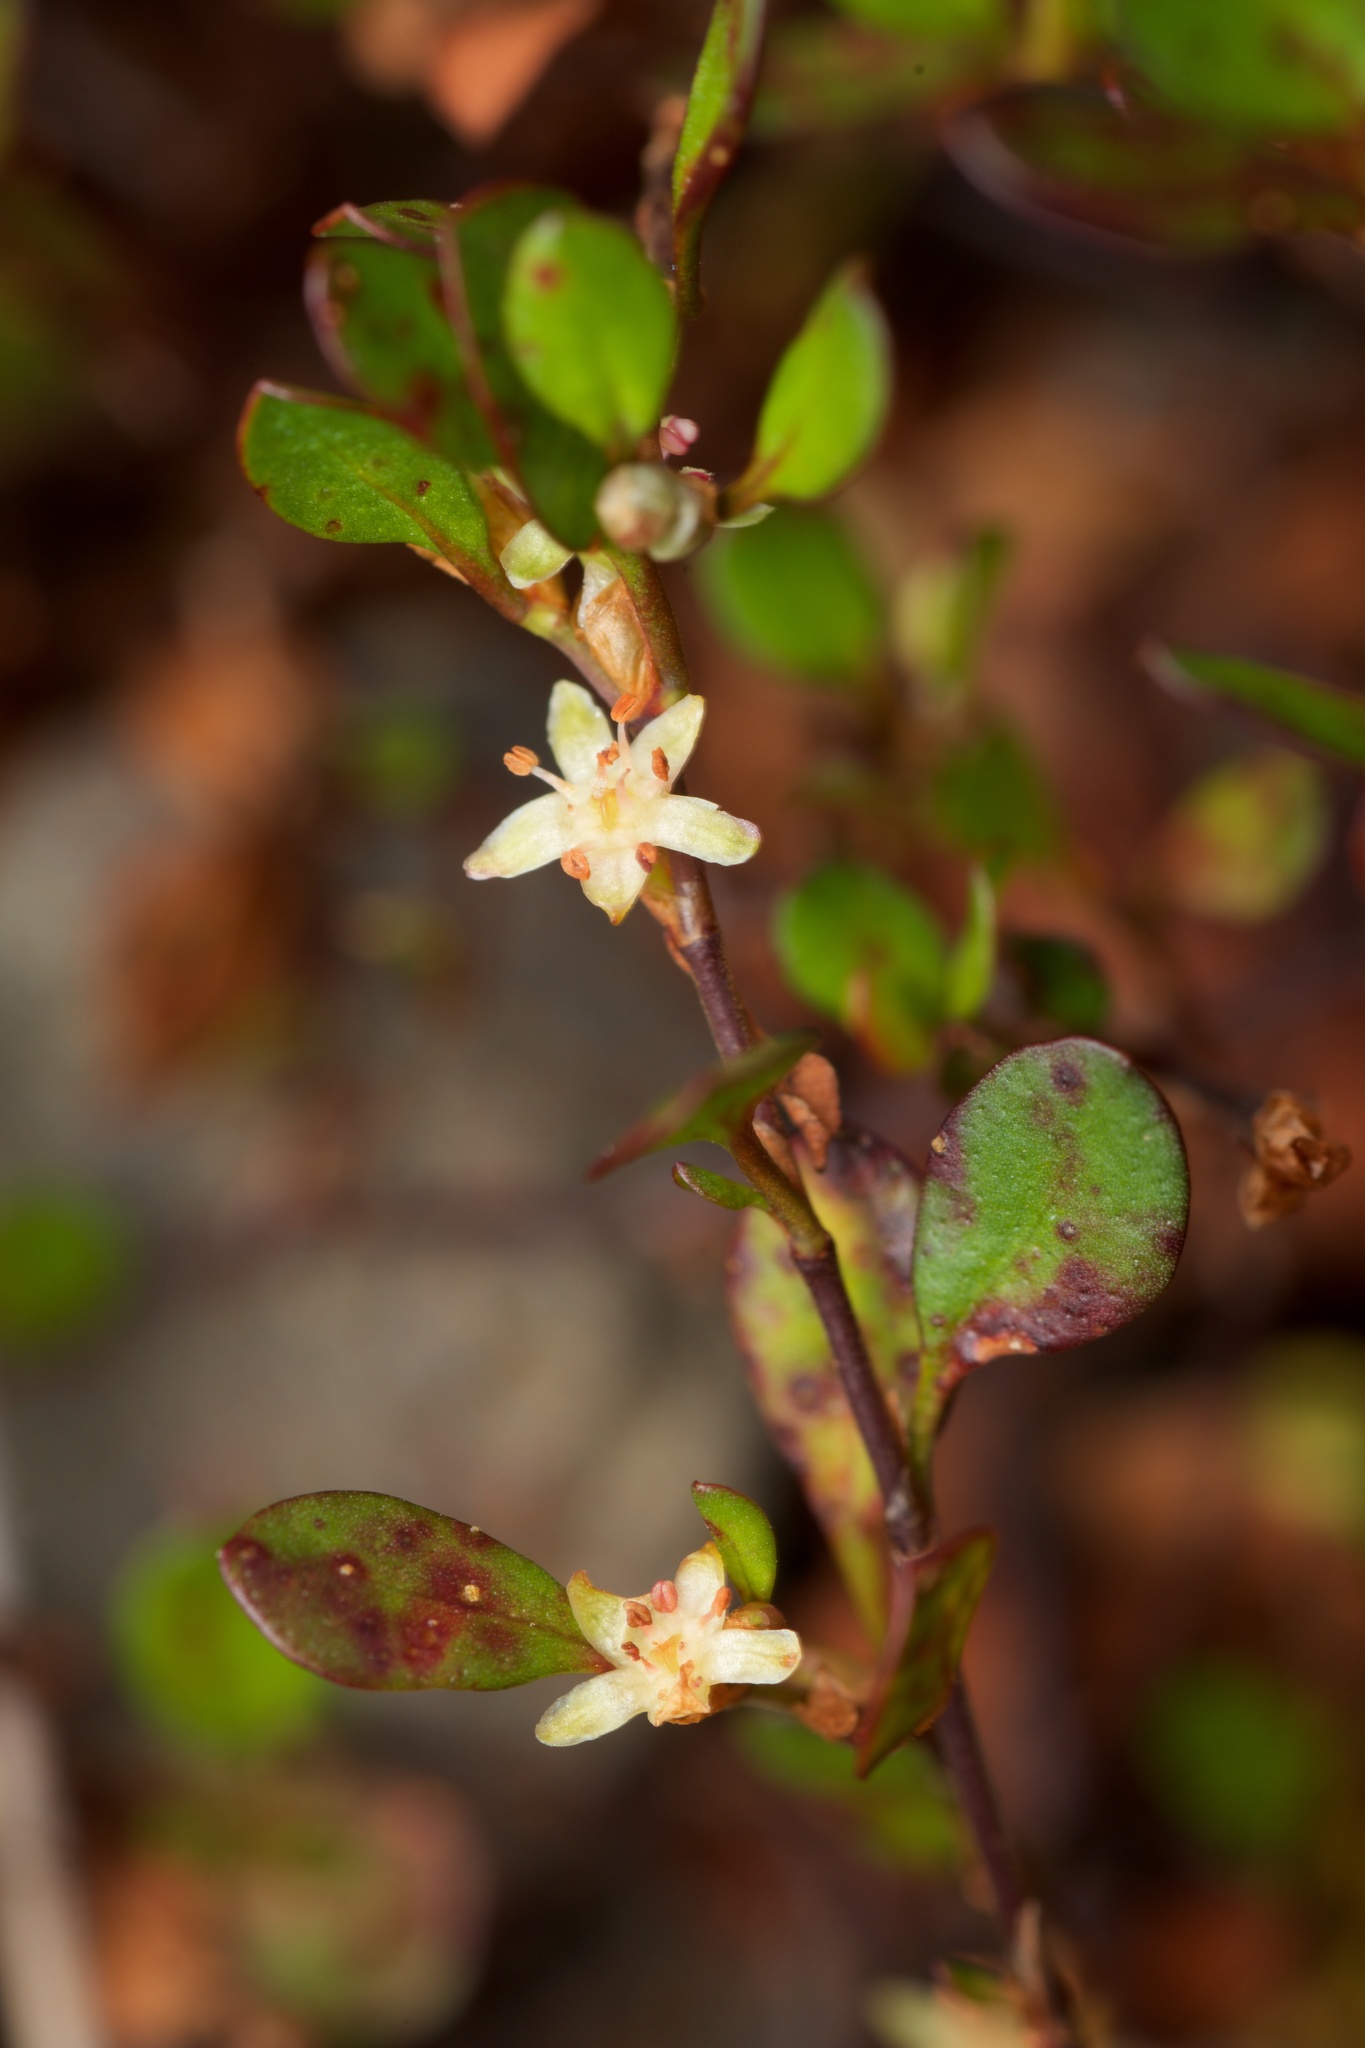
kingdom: Plantae
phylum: Tracheophyta
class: Magnoliopsida
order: Caryophyllales
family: Polygonaceae
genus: Muehlenbeckia
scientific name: Muehlenbeckia axillaris
